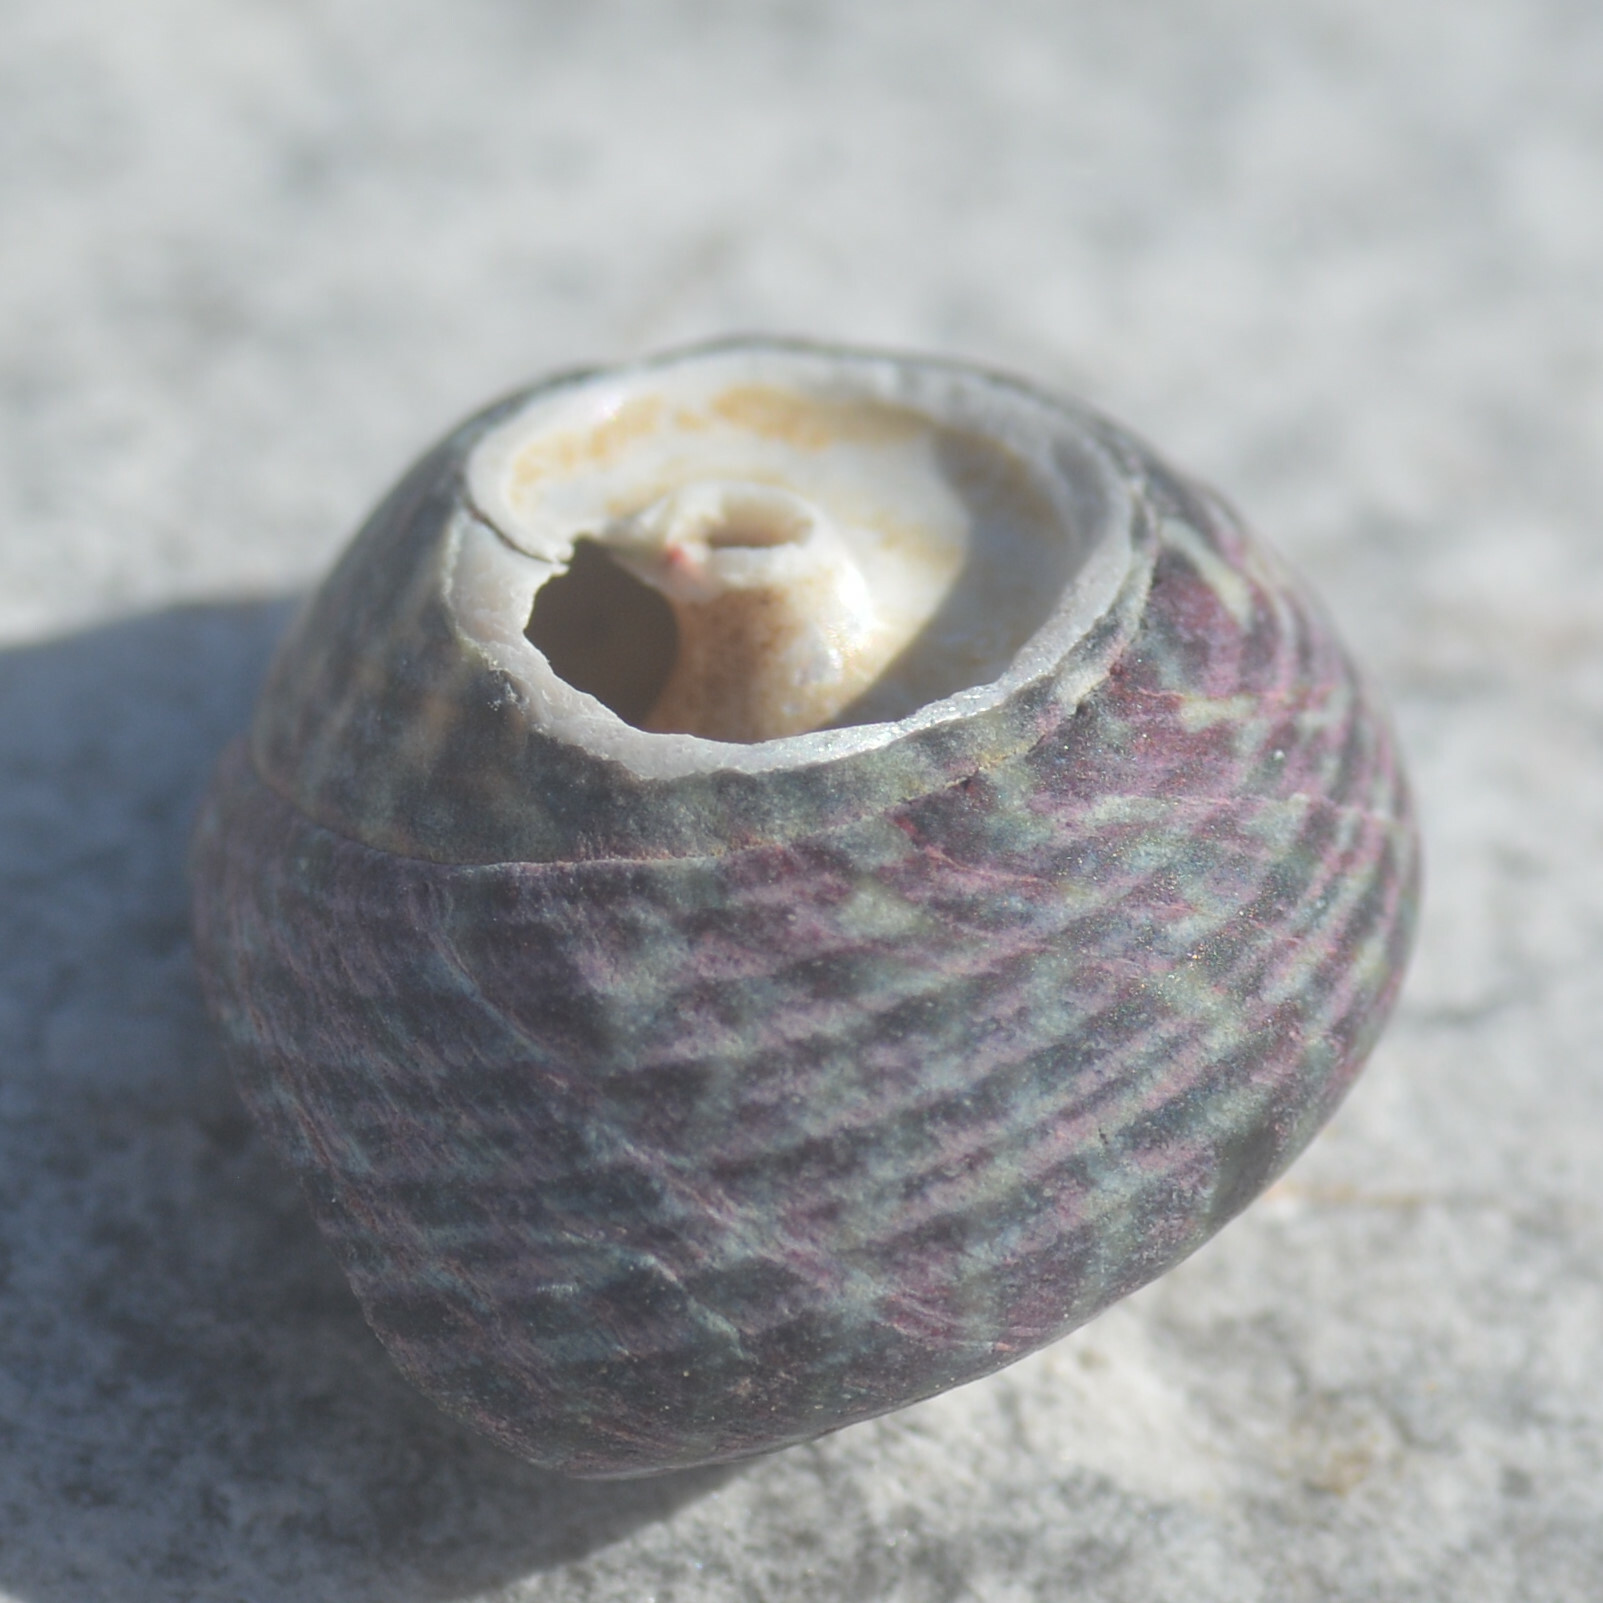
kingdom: Animalia
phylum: Mollusca
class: Gastropoda
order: Trochida
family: Trochidae
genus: Steromphala
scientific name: Steromphala umbilicalis
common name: Flat top shell
